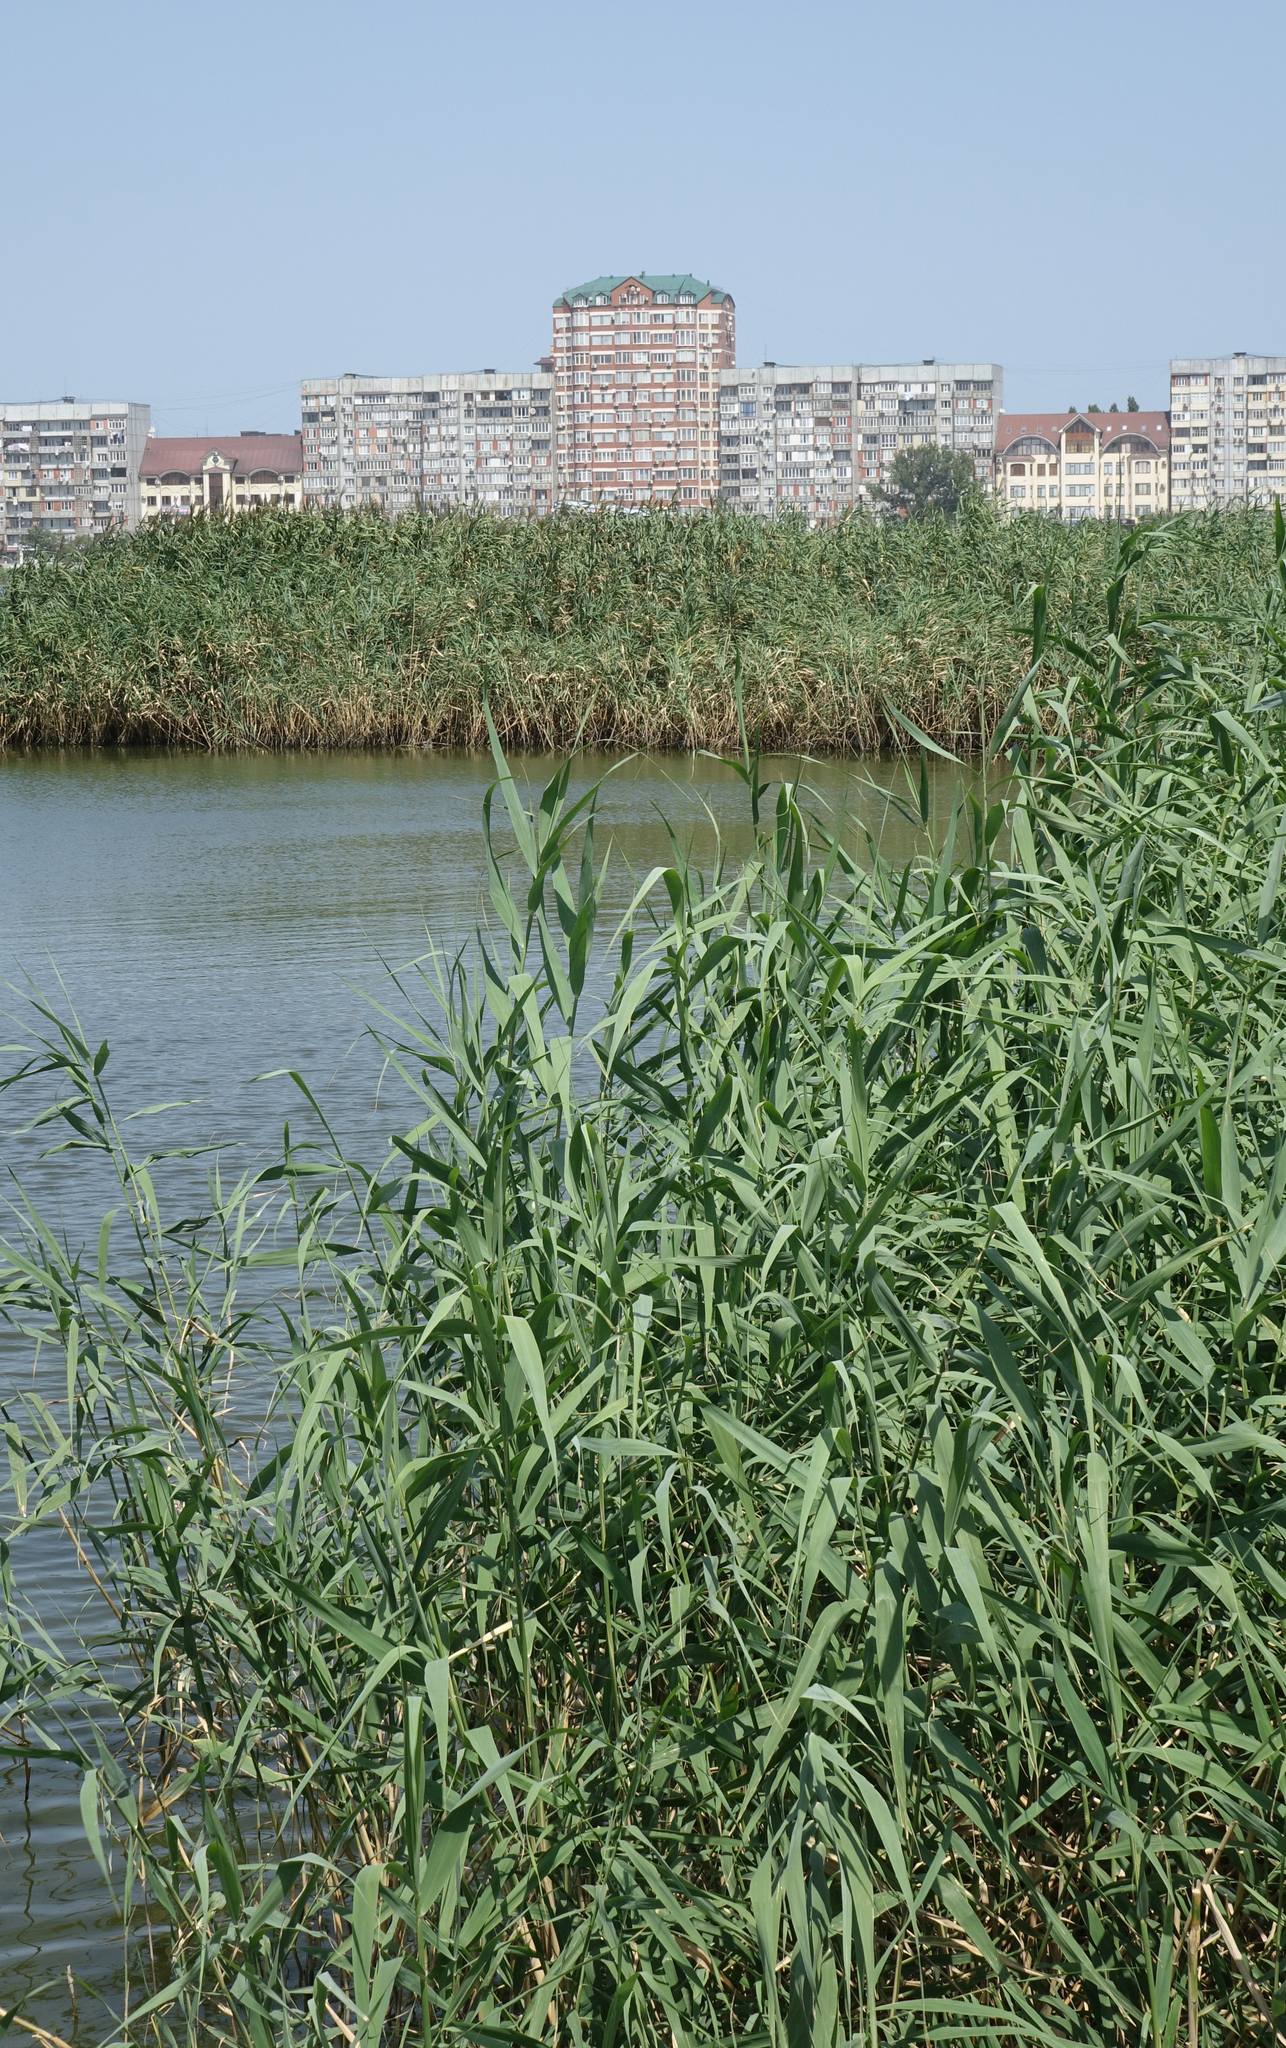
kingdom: Plantae
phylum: Tracheophyta
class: Liliopsida
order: Poales
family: Poaceae
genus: Phragmites
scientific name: Phragmites australis
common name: Common reed
